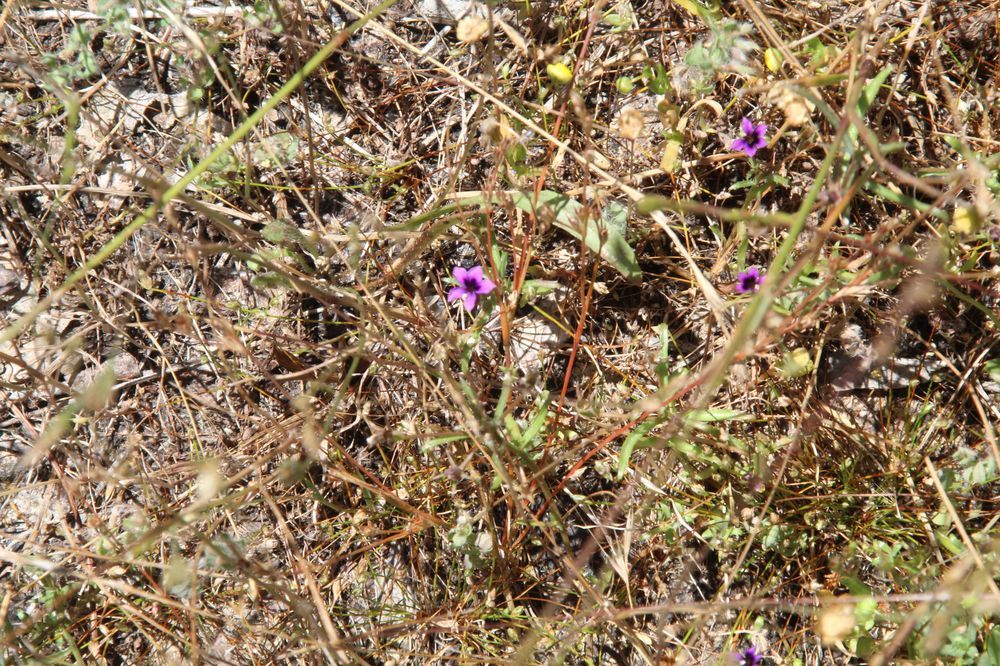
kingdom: Plantae
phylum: Tracheophyta
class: Magnoliopsida
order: Asterales
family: Campanulaceae
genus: Monopsis
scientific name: Monopsis debilis
